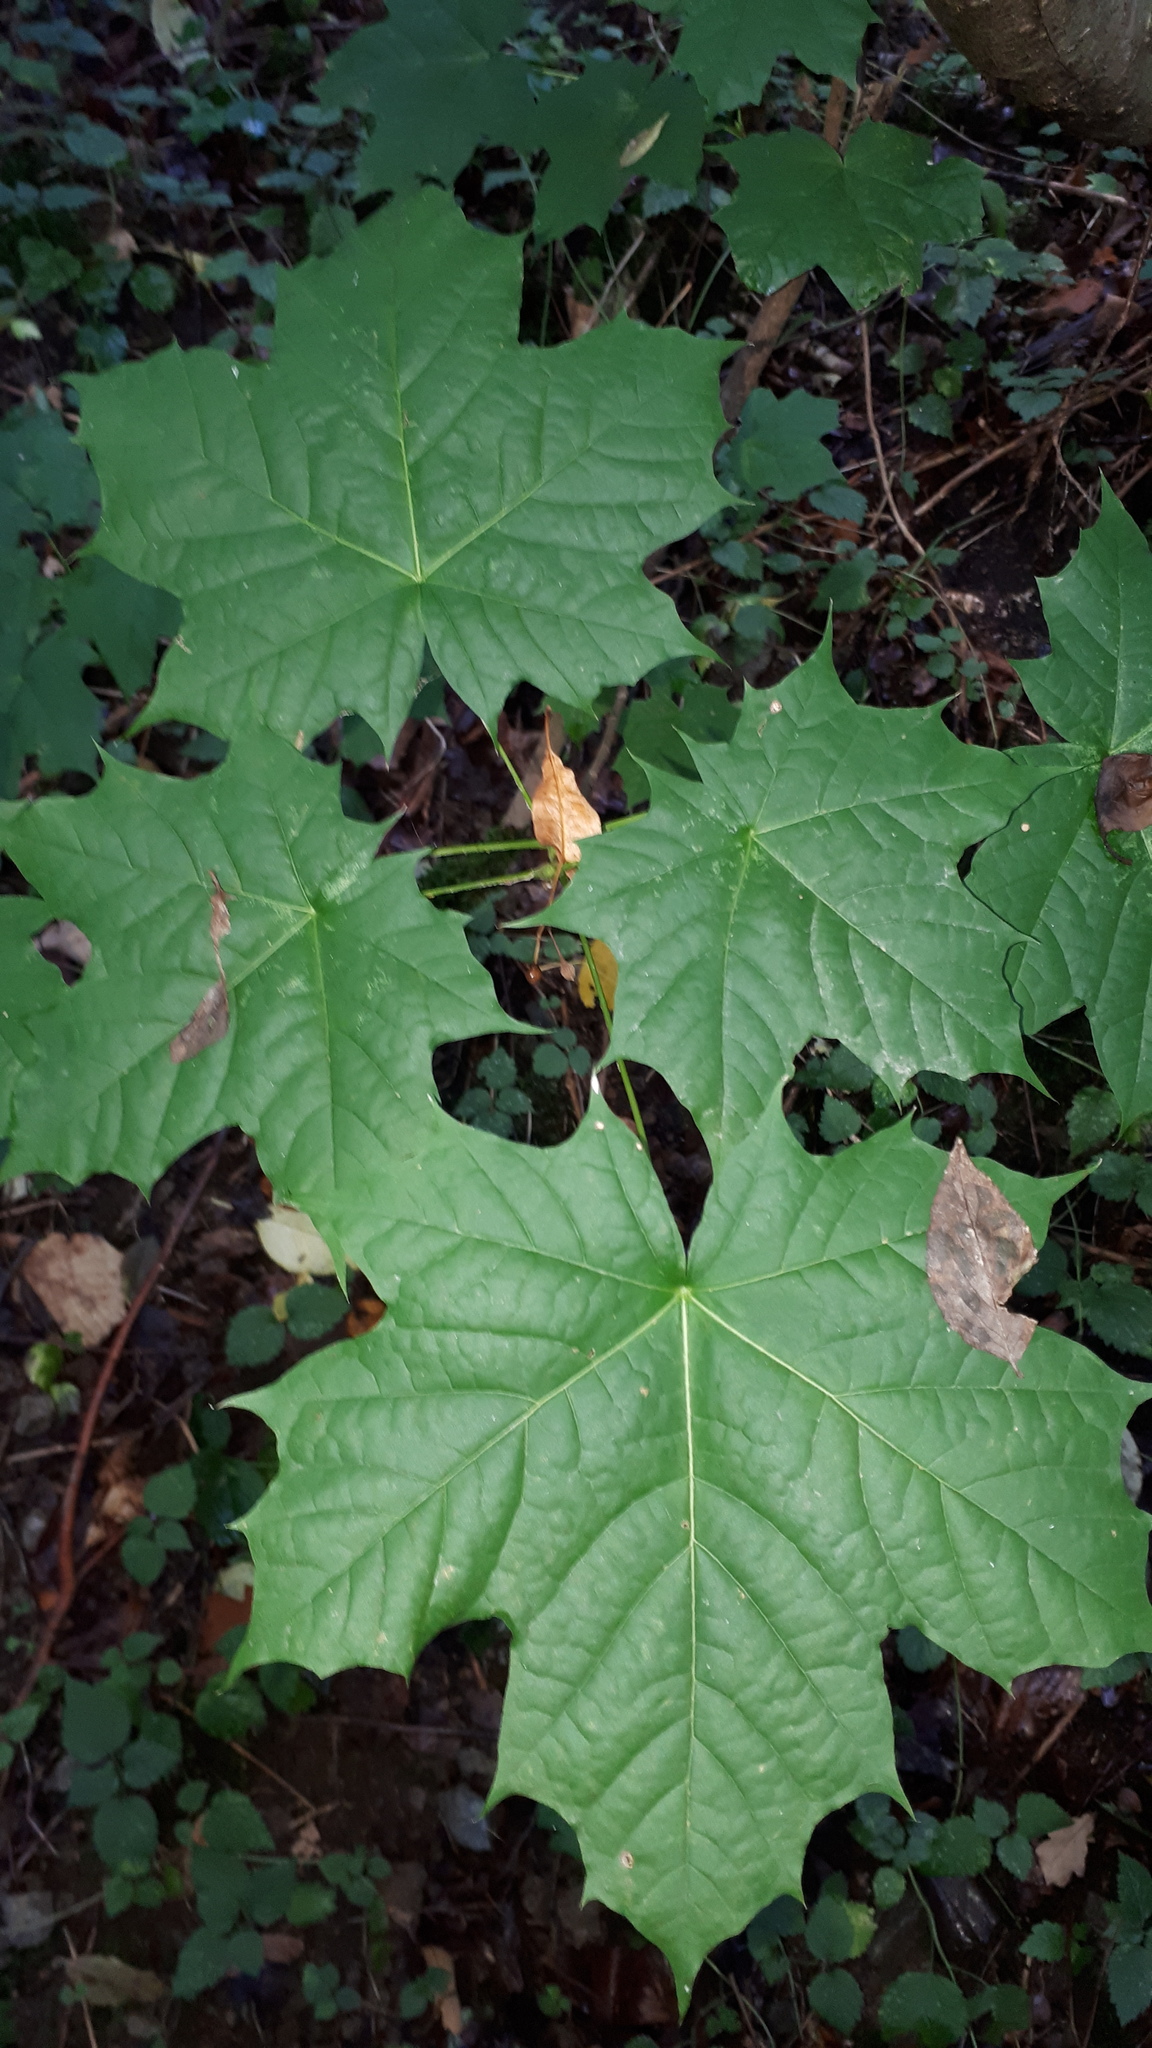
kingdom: Plantae
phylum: Tracheophyta
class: Magnoliopsida
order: Sapindales
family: Sapindaceae
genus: Acer
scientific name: Acer platanoides
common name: Norway maple
